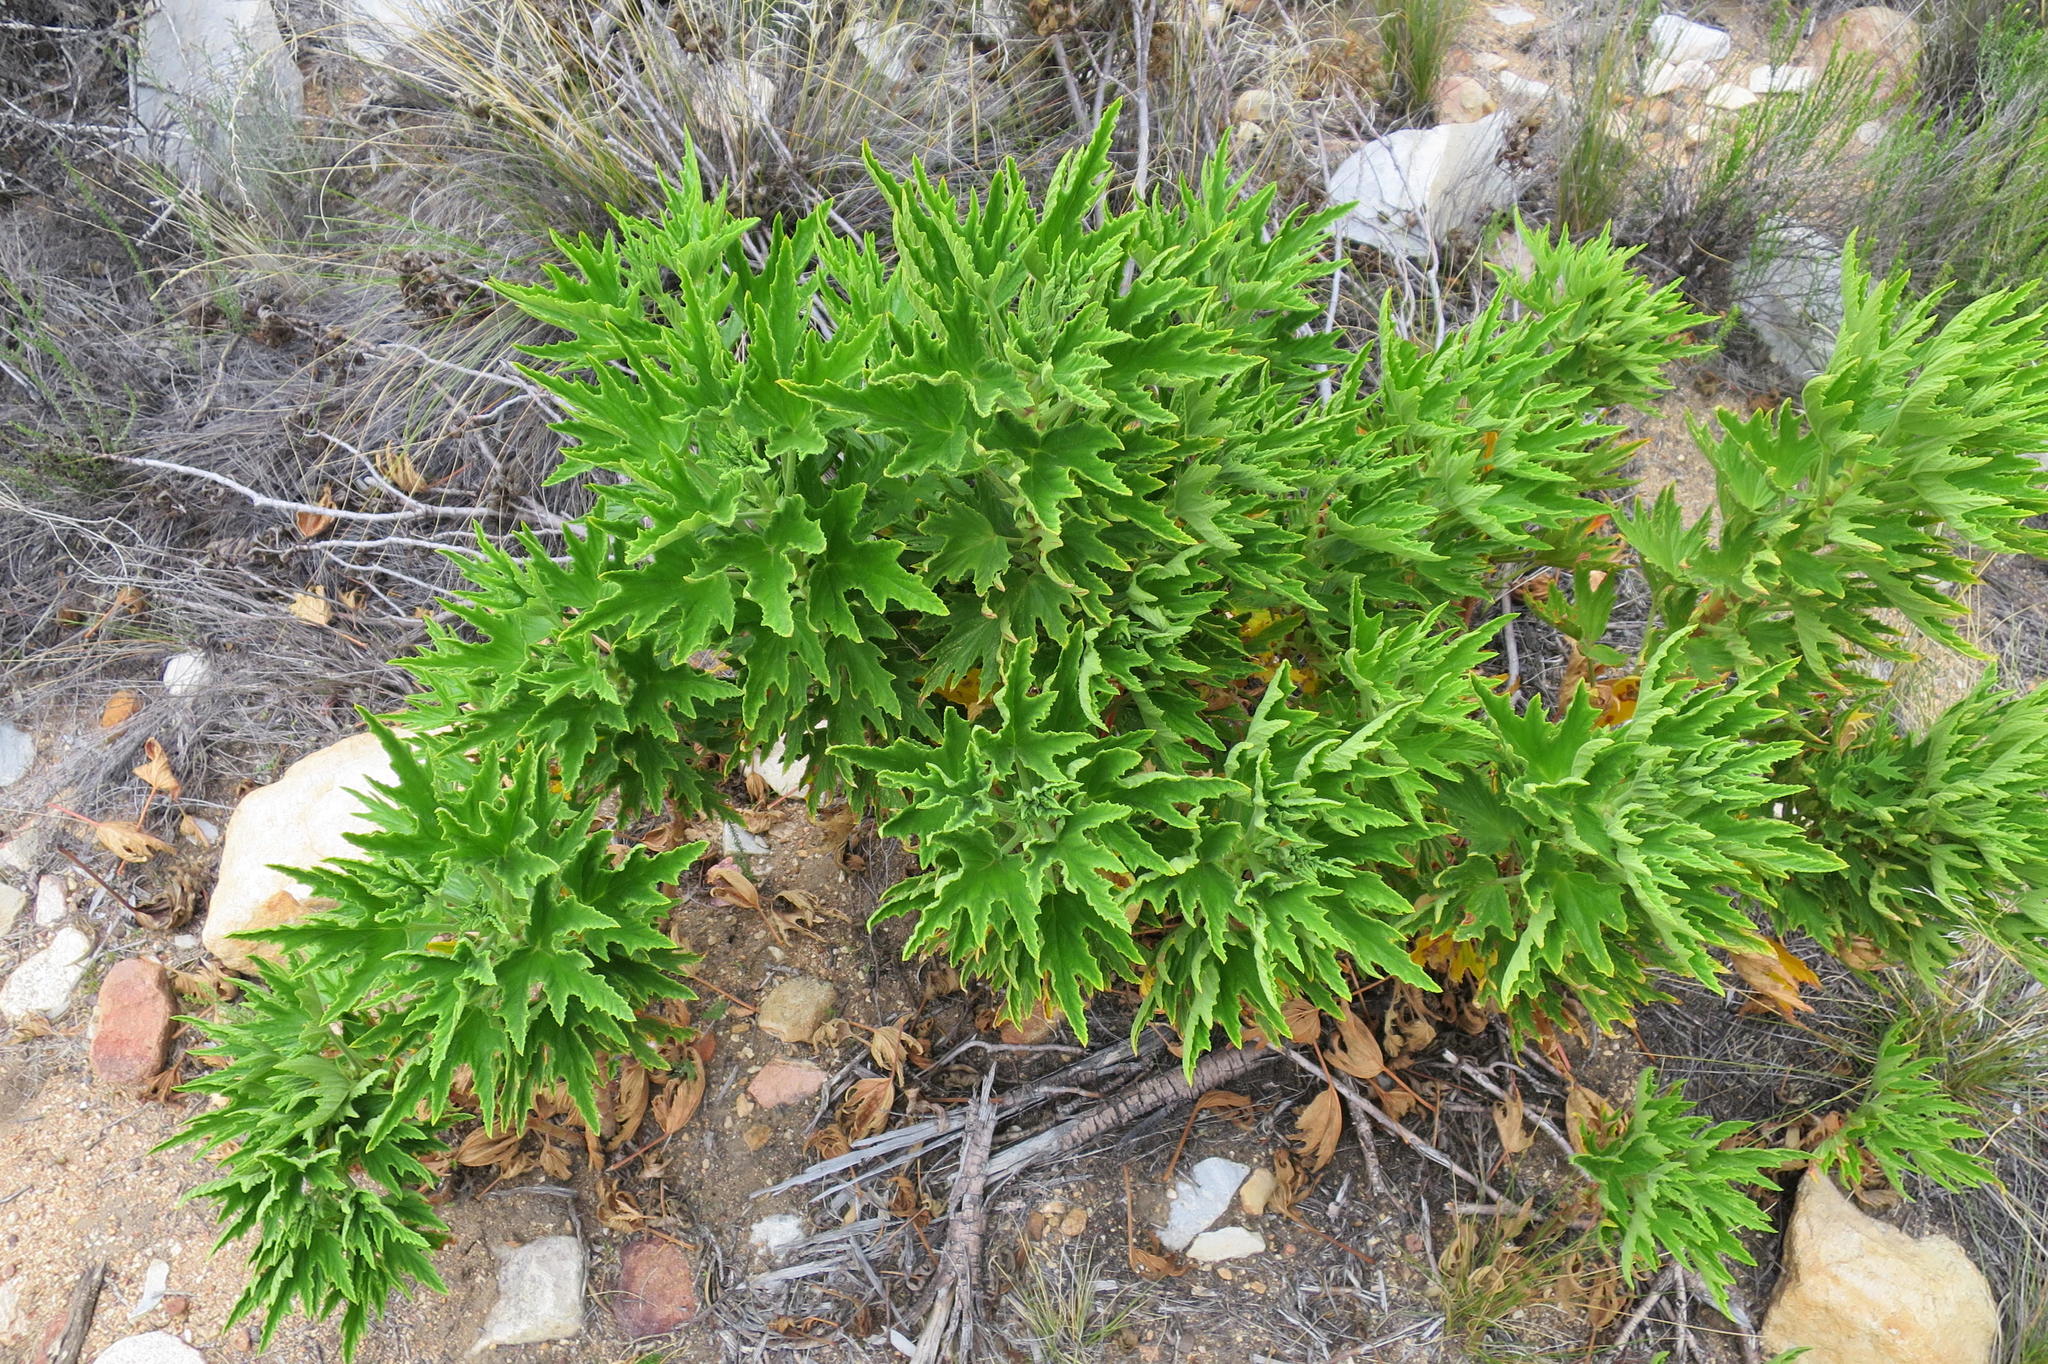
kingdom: Plantae
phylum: Tracheophyta
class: Magnoliopsida
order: Geraniales
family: Geraniaceae
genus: Pelargonium
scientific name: Pelargonium citronellum
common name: Lemon-scent pelargonium
